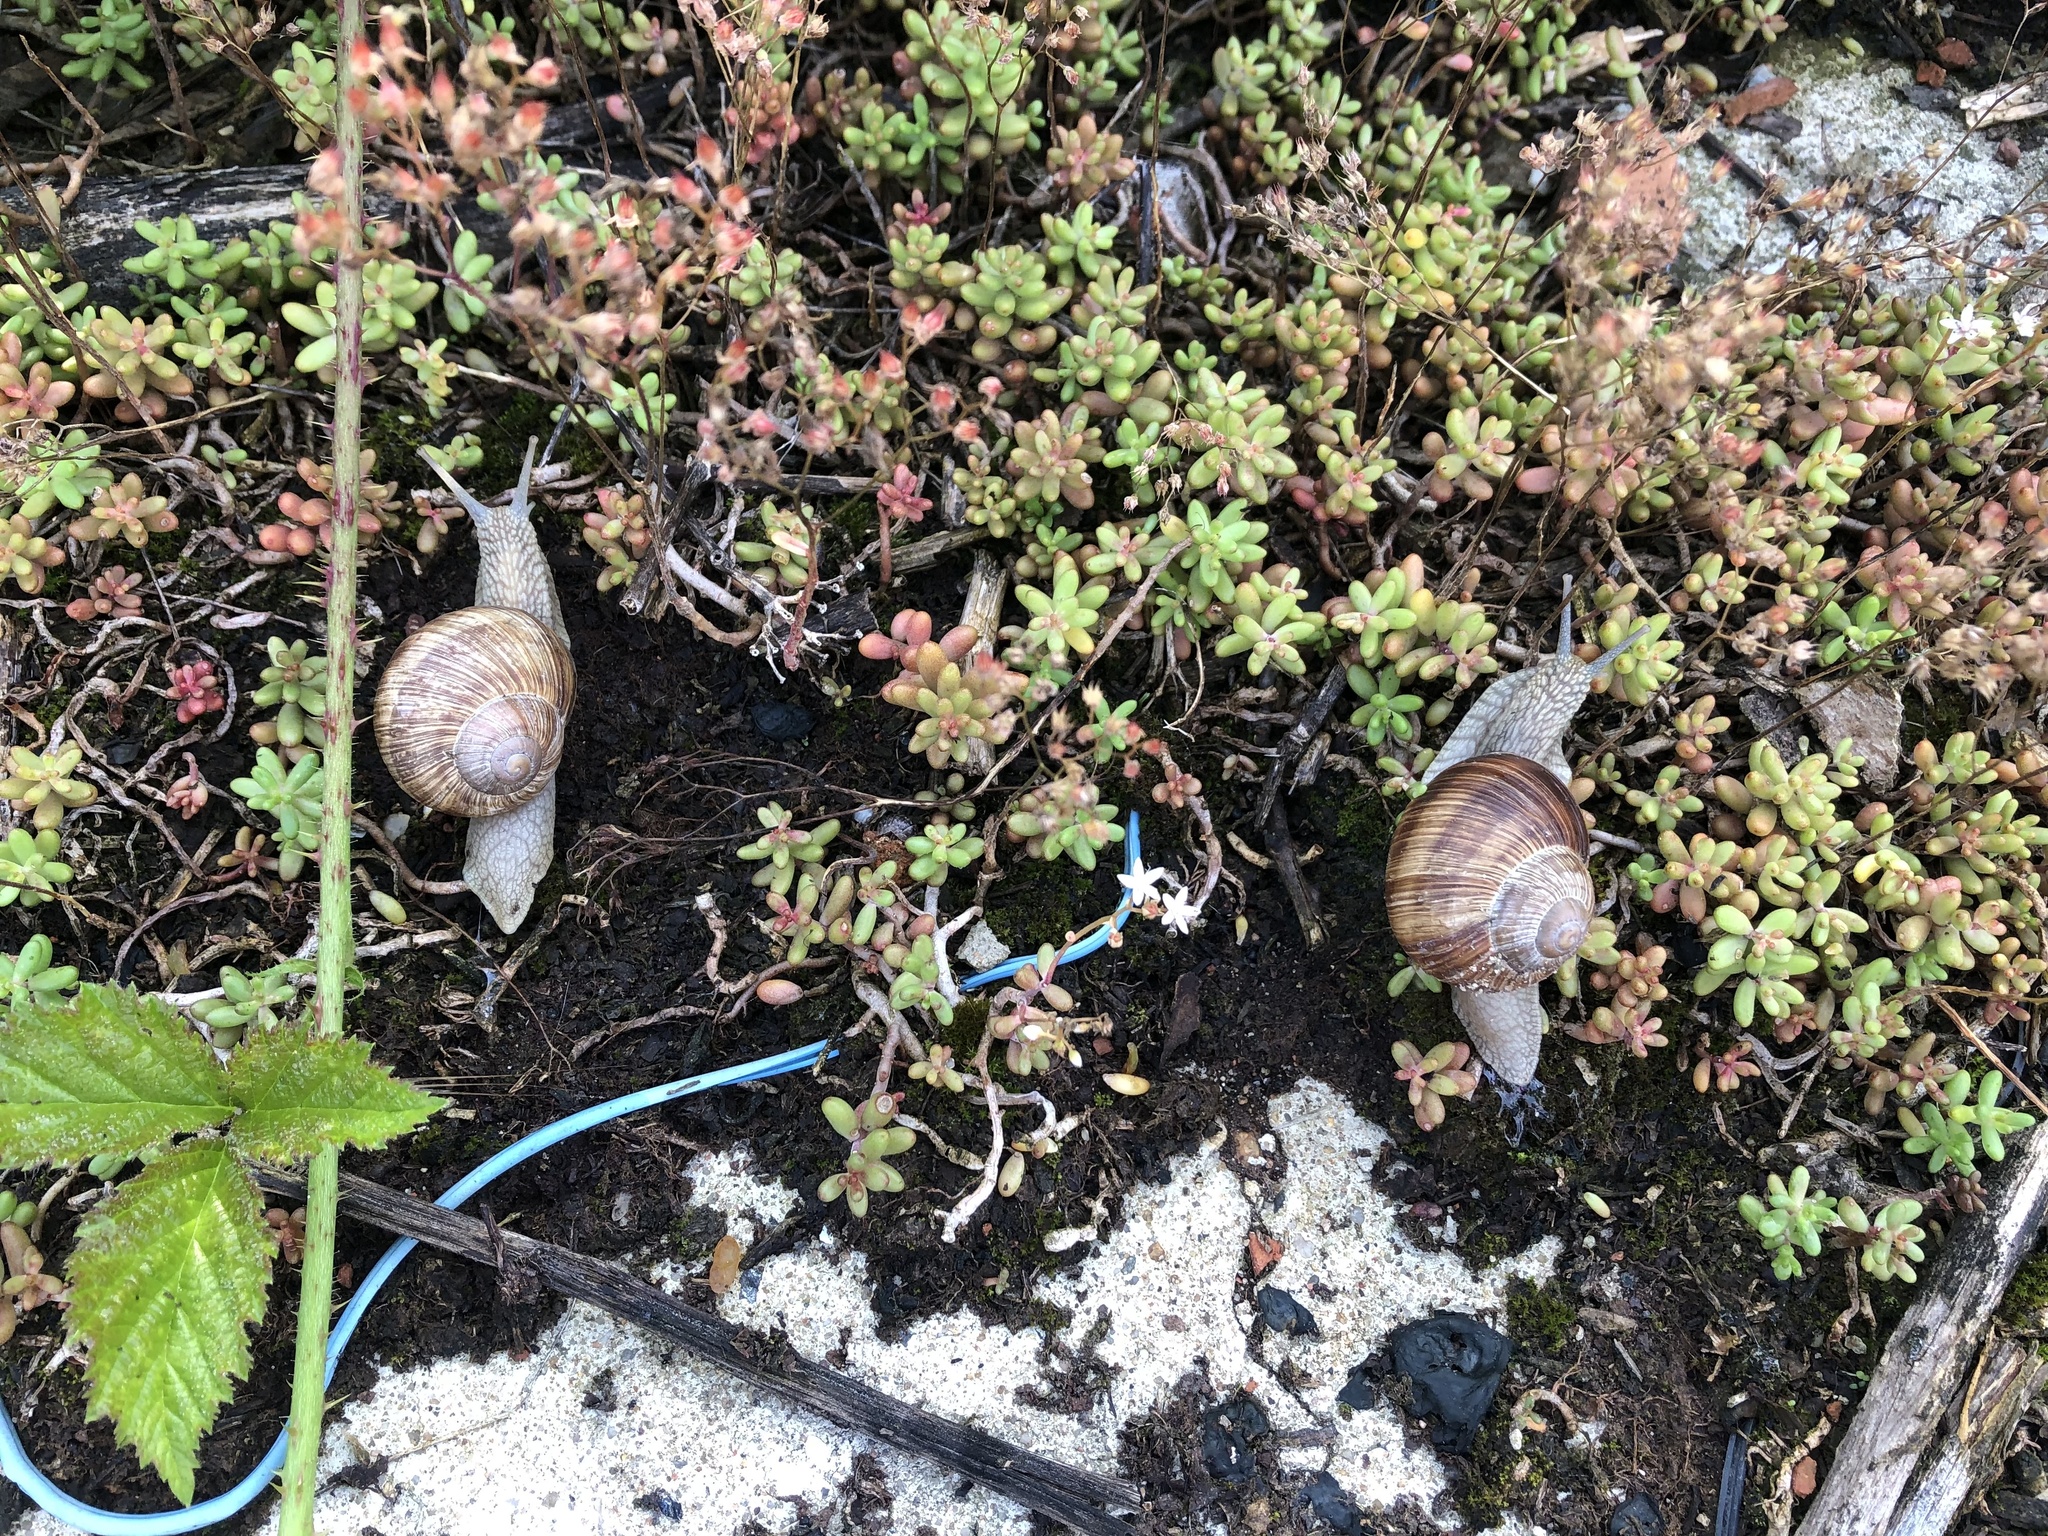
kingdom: Animalia
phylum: Mollusca
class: Gastropoda
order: Stylommatophora
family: Helicidae
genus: Helix
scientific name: Helix pomatia
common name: Roman snail
